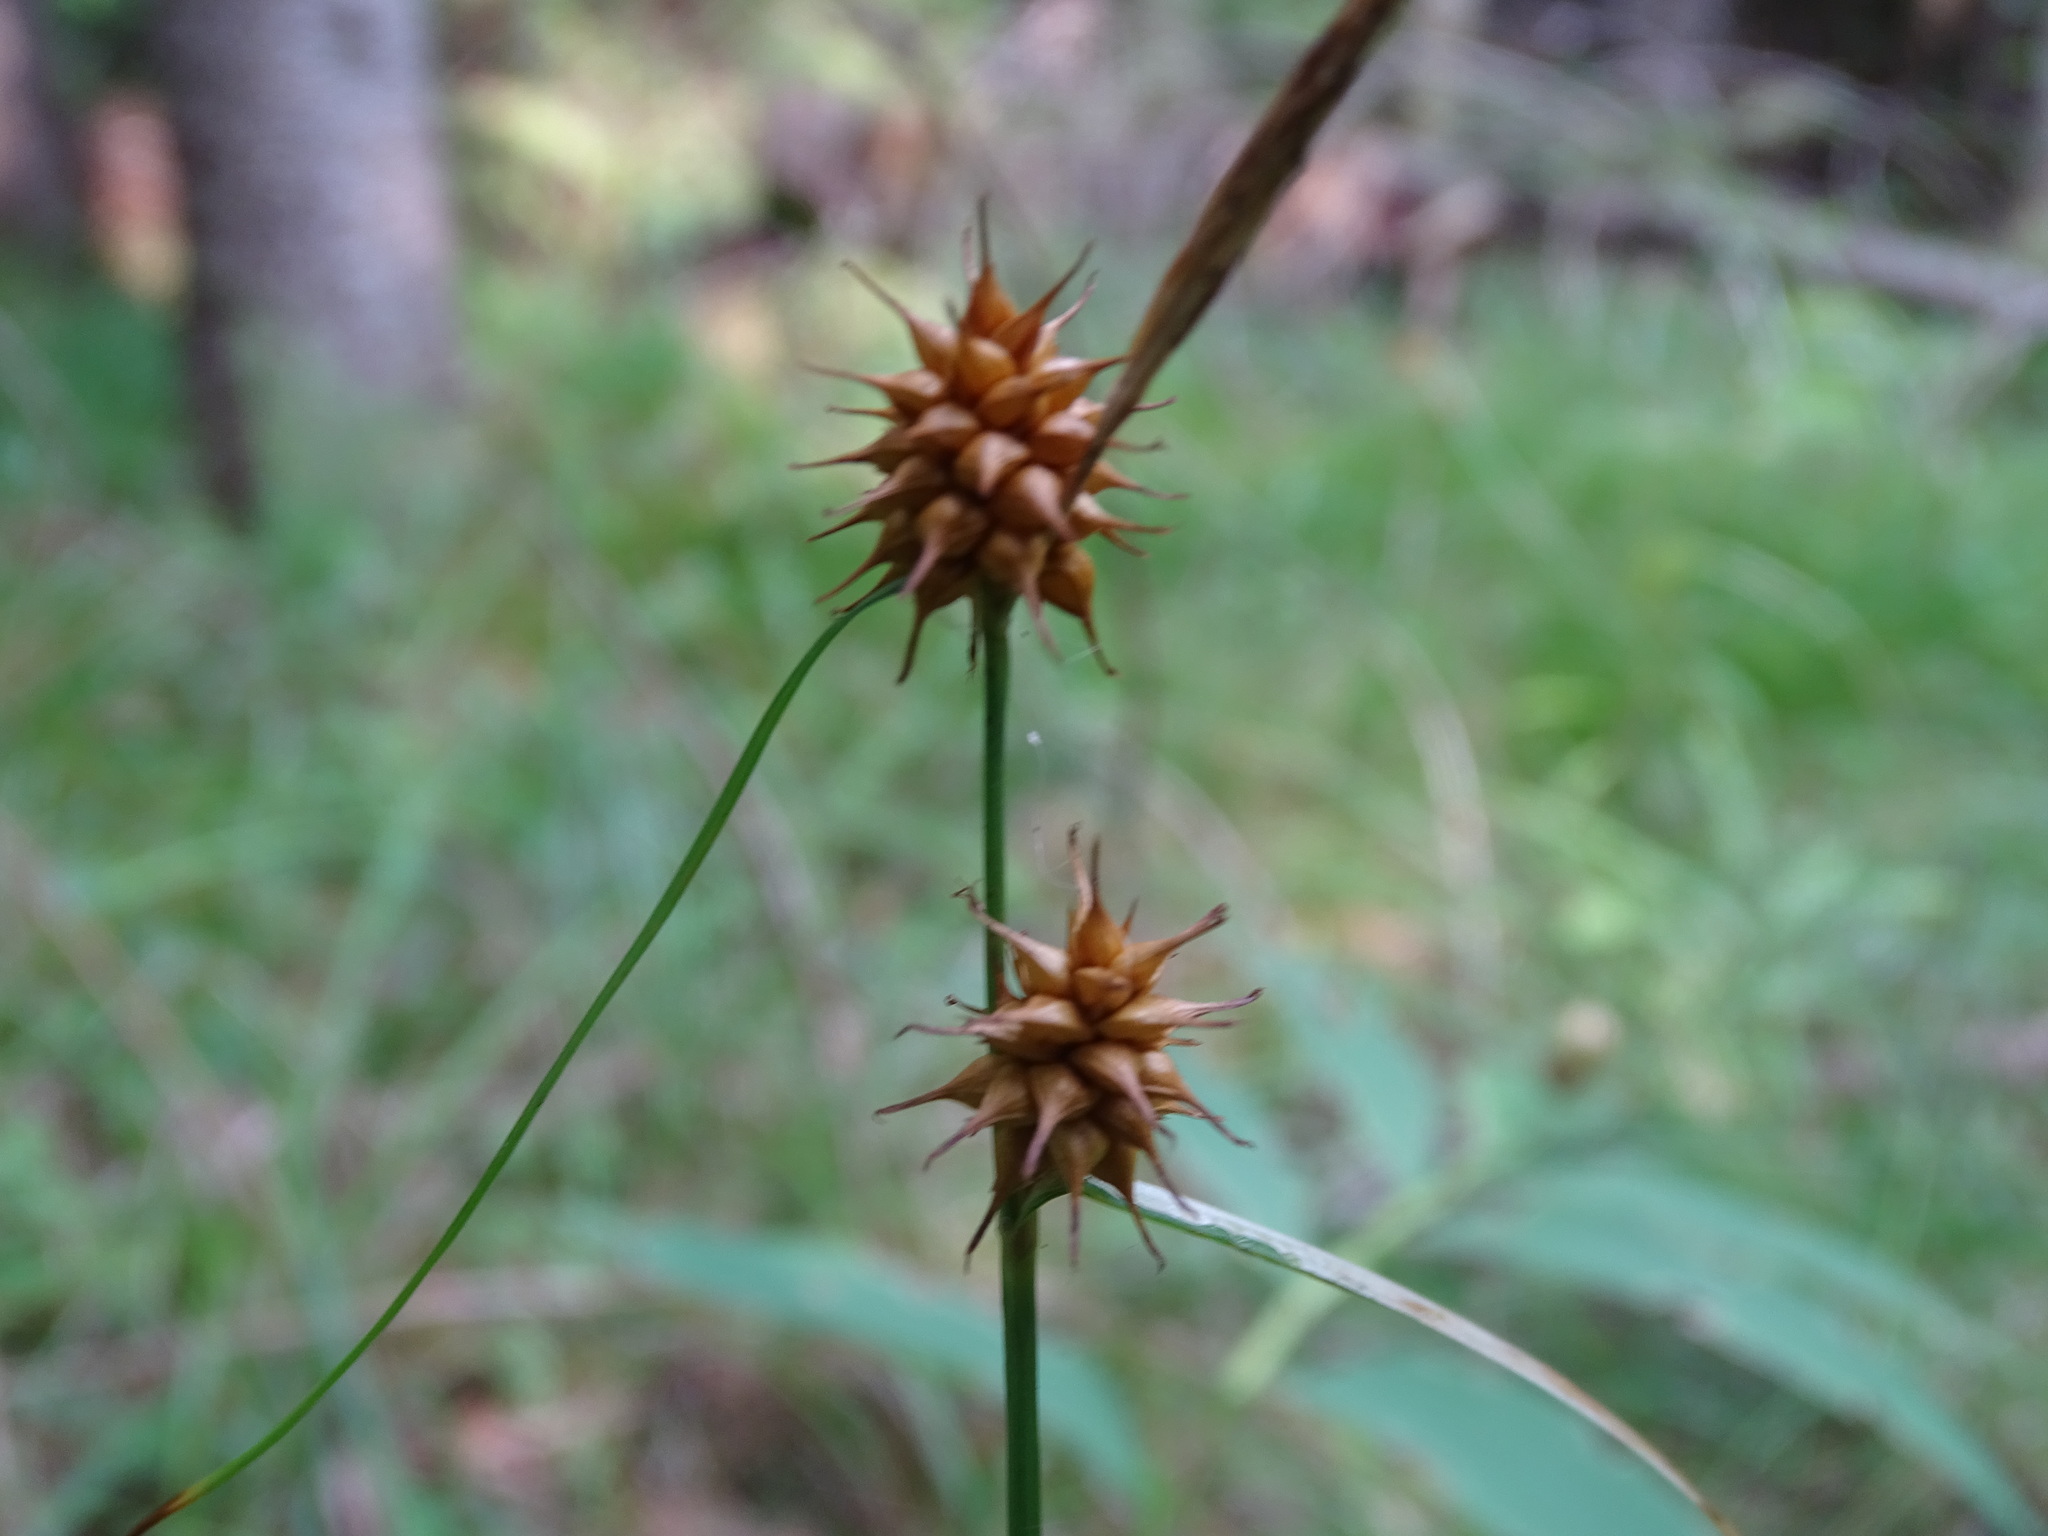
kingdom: Plantae
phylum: Tracheophyta
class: Liliopsida
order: Poales
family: Cyperaceae
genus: Carex
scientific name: Carex flava
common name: Large yellow-sedge
